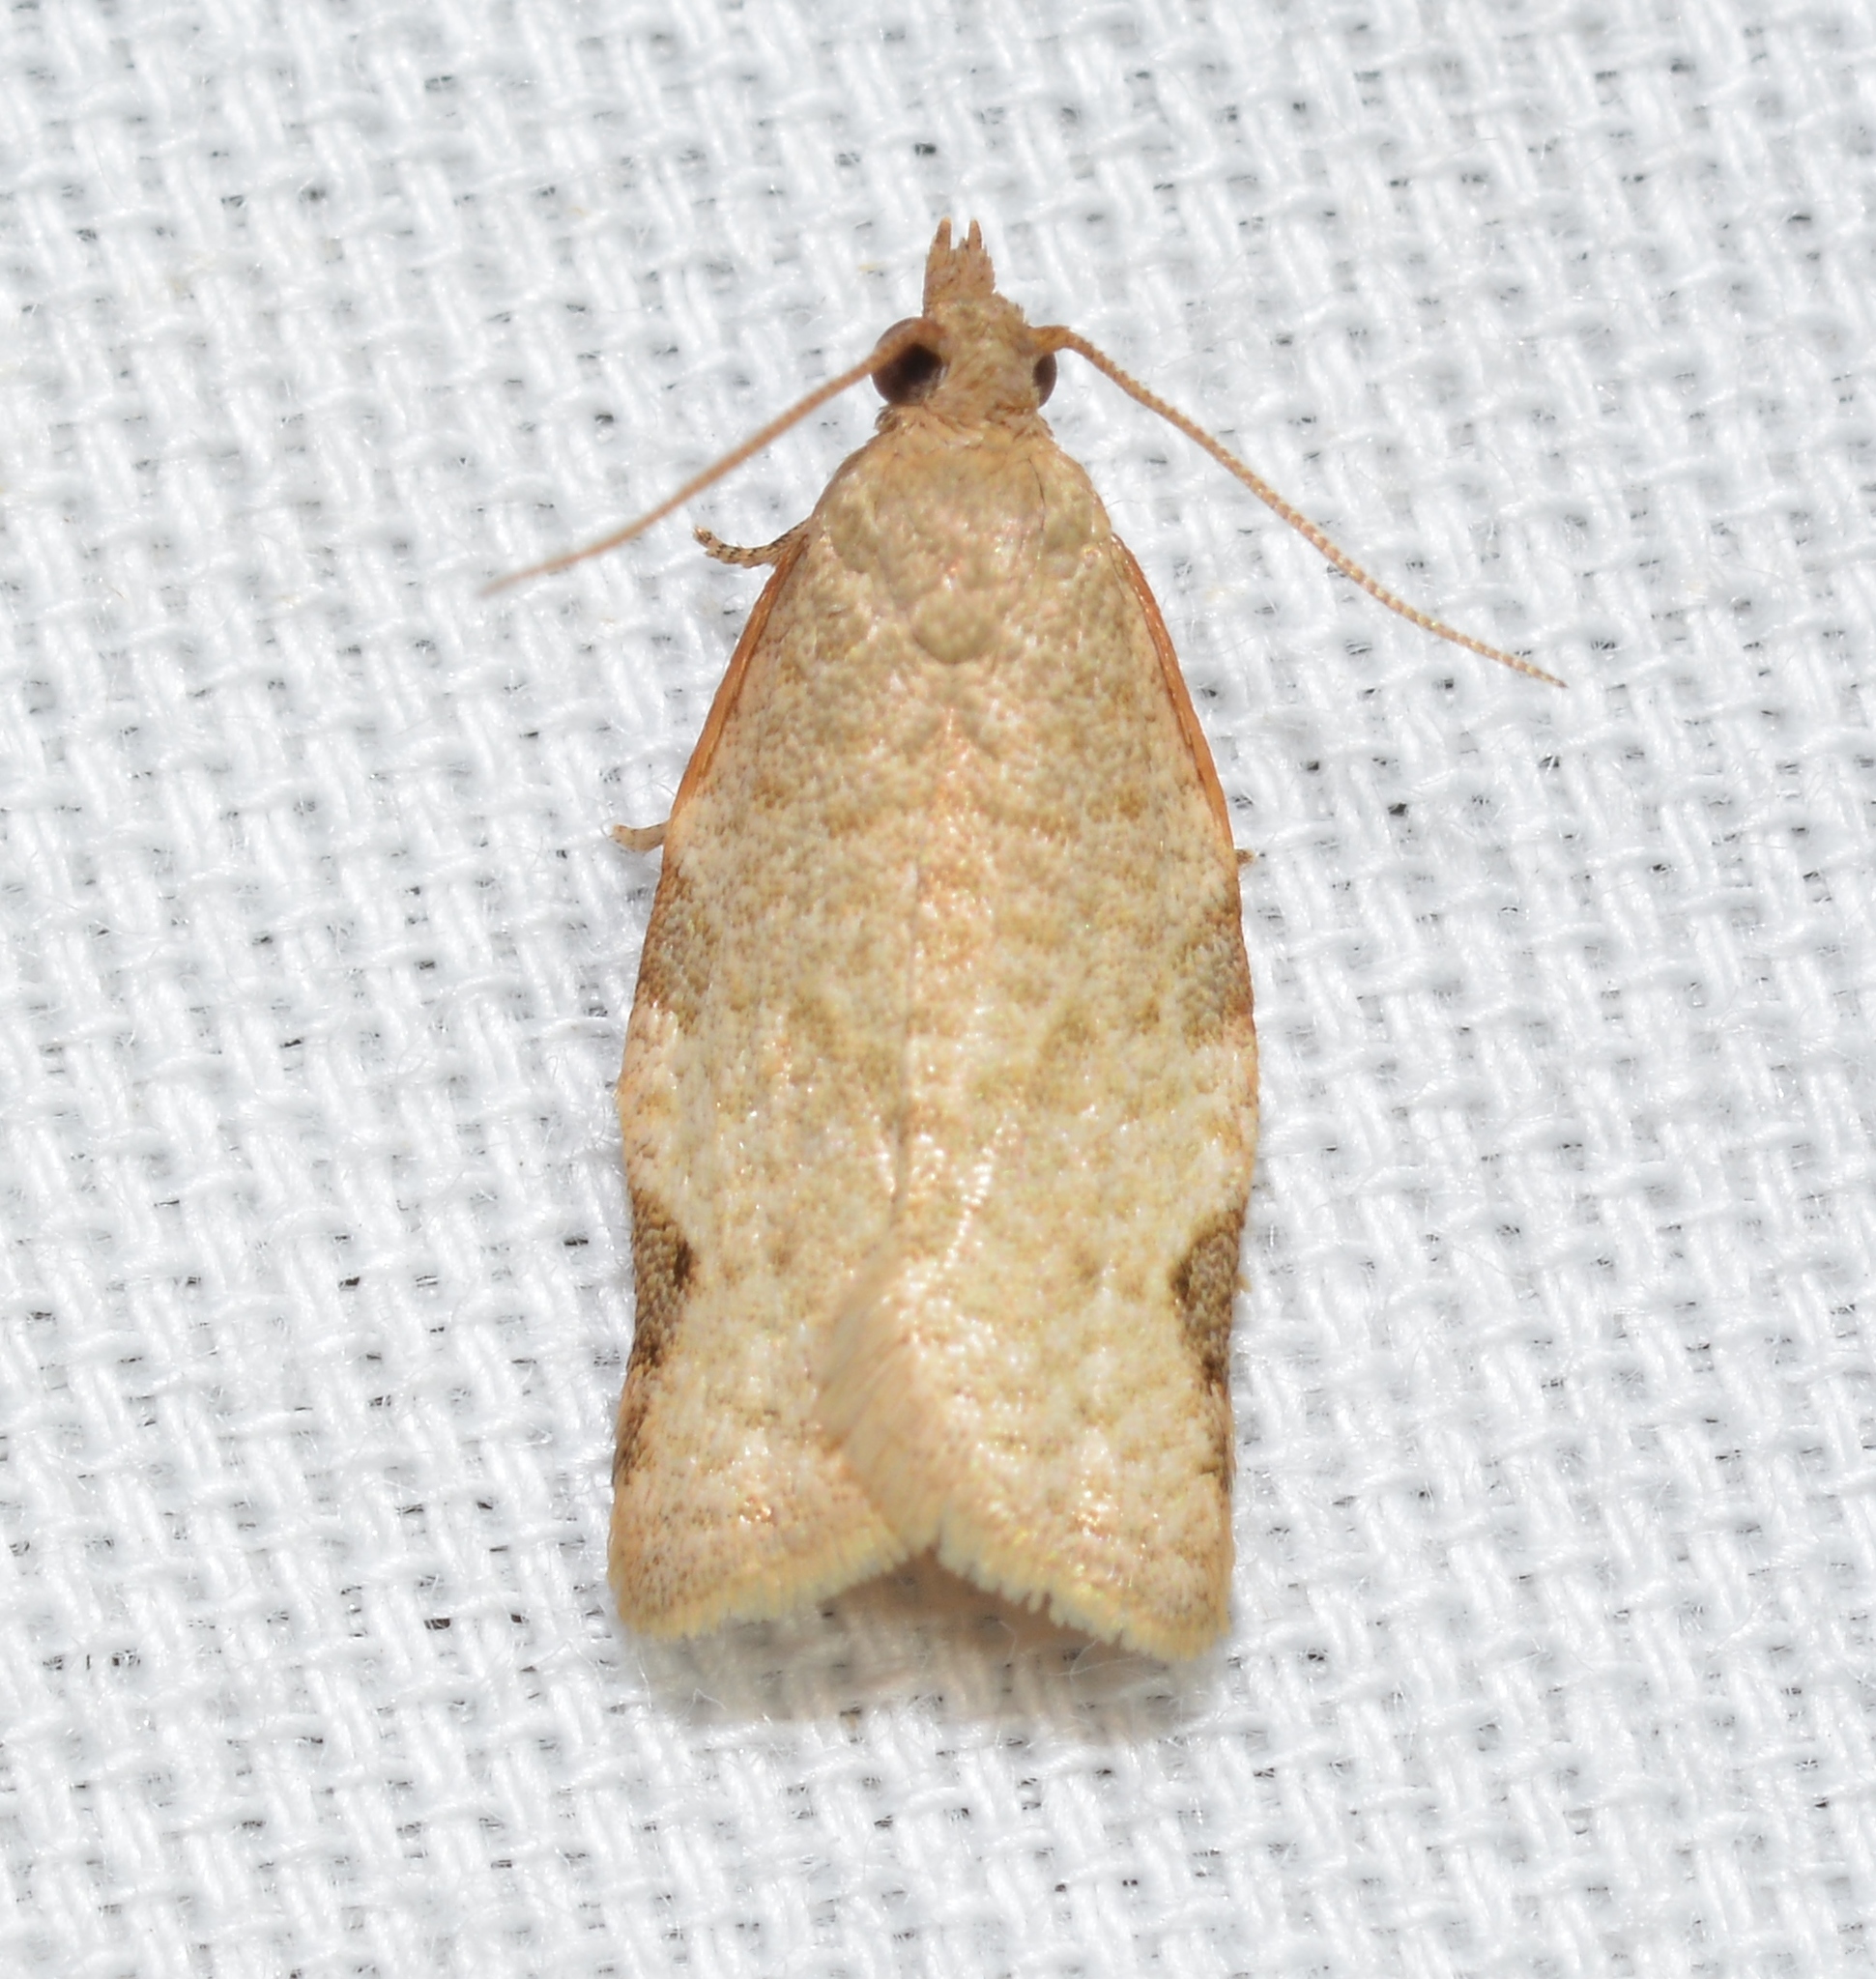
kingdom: Animalia
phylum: Arthropoda
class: Insecta
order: Lepidoptera
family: Tortricidae
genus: Clepsis
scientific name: Clepsis virescana
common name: Greenish apple moth
